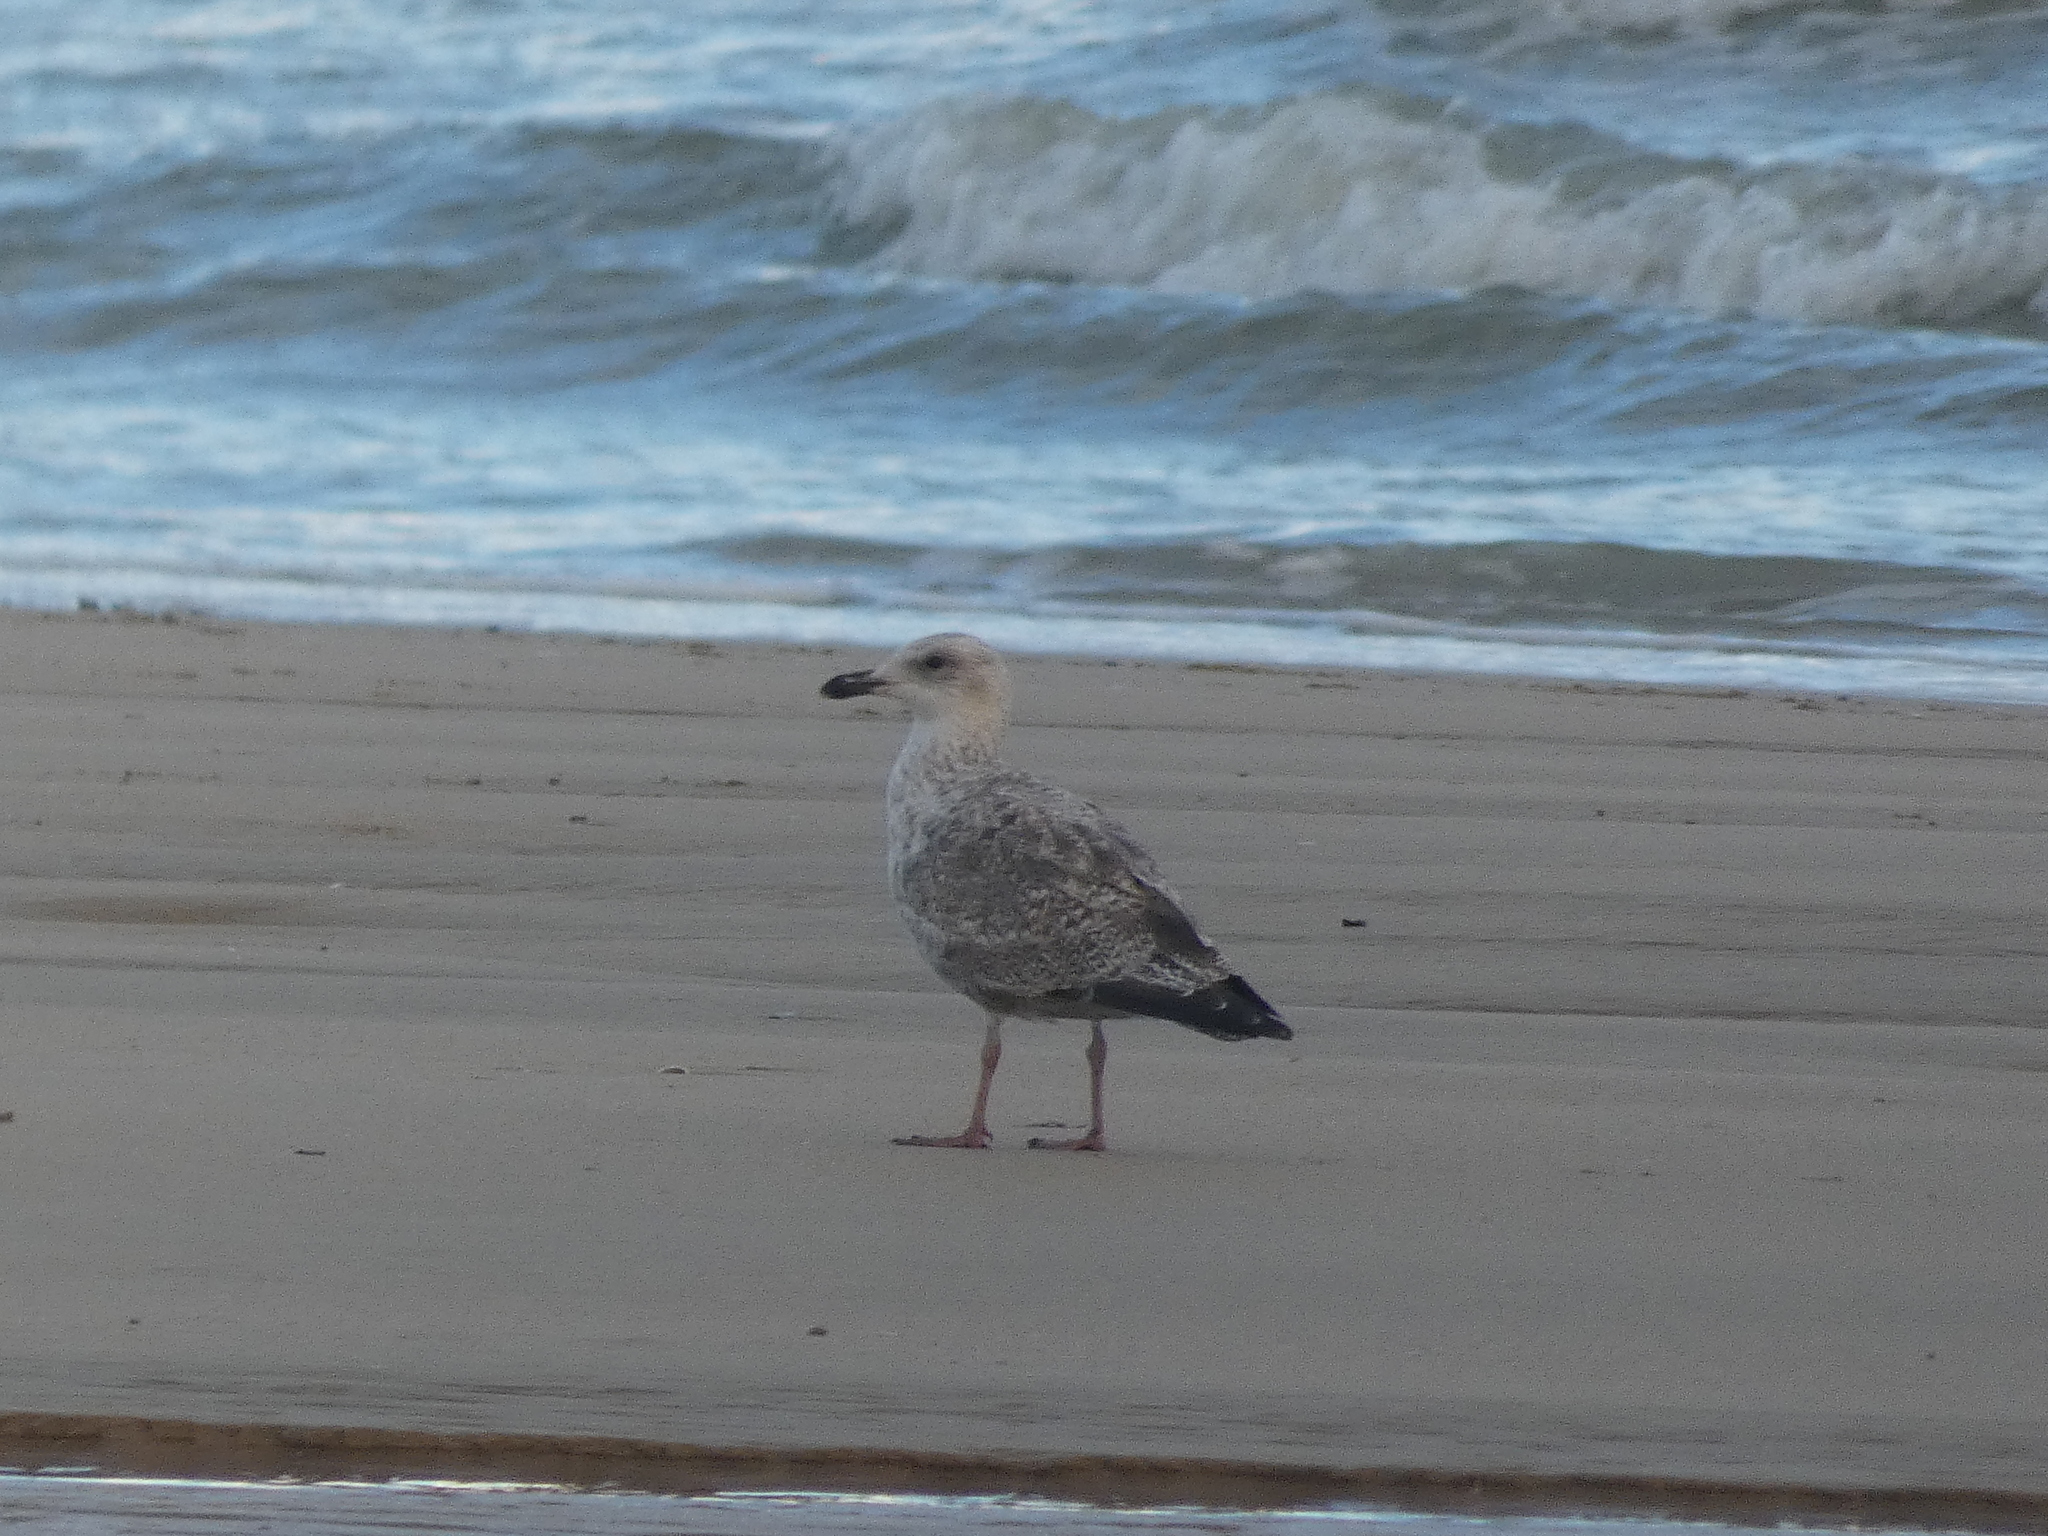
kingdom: Animalia
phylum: Chordata
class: Aves
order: Charadriiformes
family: Laridae
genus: Larus
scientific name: Larus argentatus
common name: Herring gull
